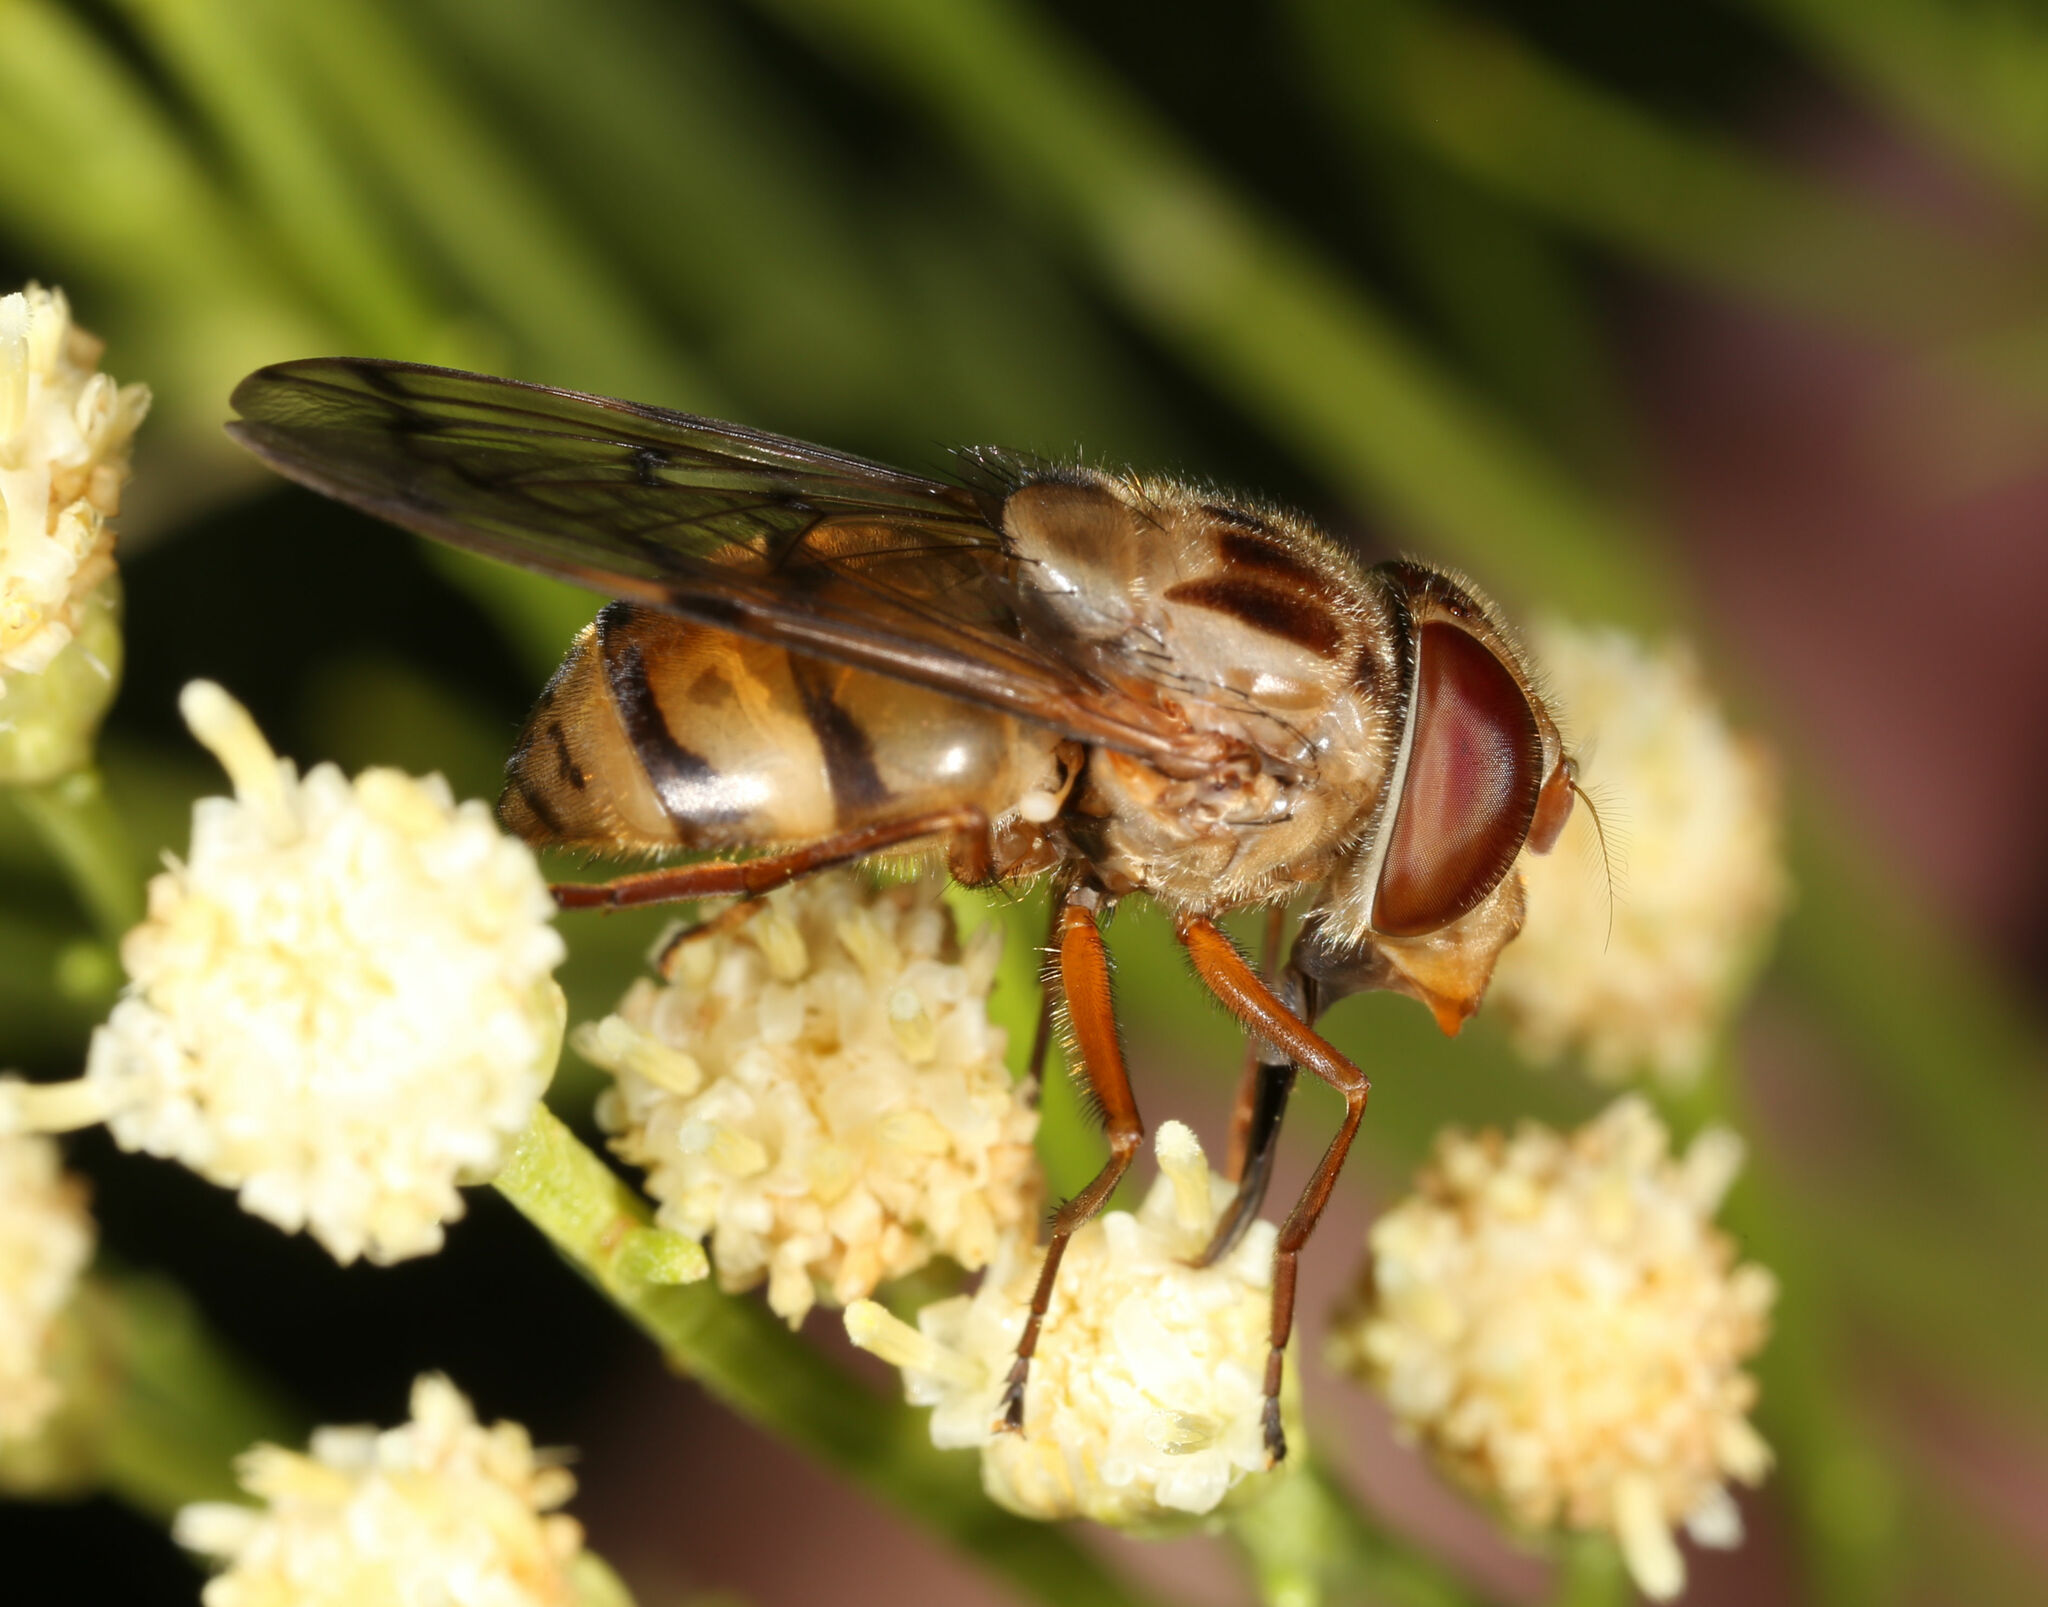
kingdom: Animalia
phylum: Arthropoda
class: Insecta
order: Diptera
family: Syrphidae
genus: Copestylum
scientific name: Copestylum opinator
